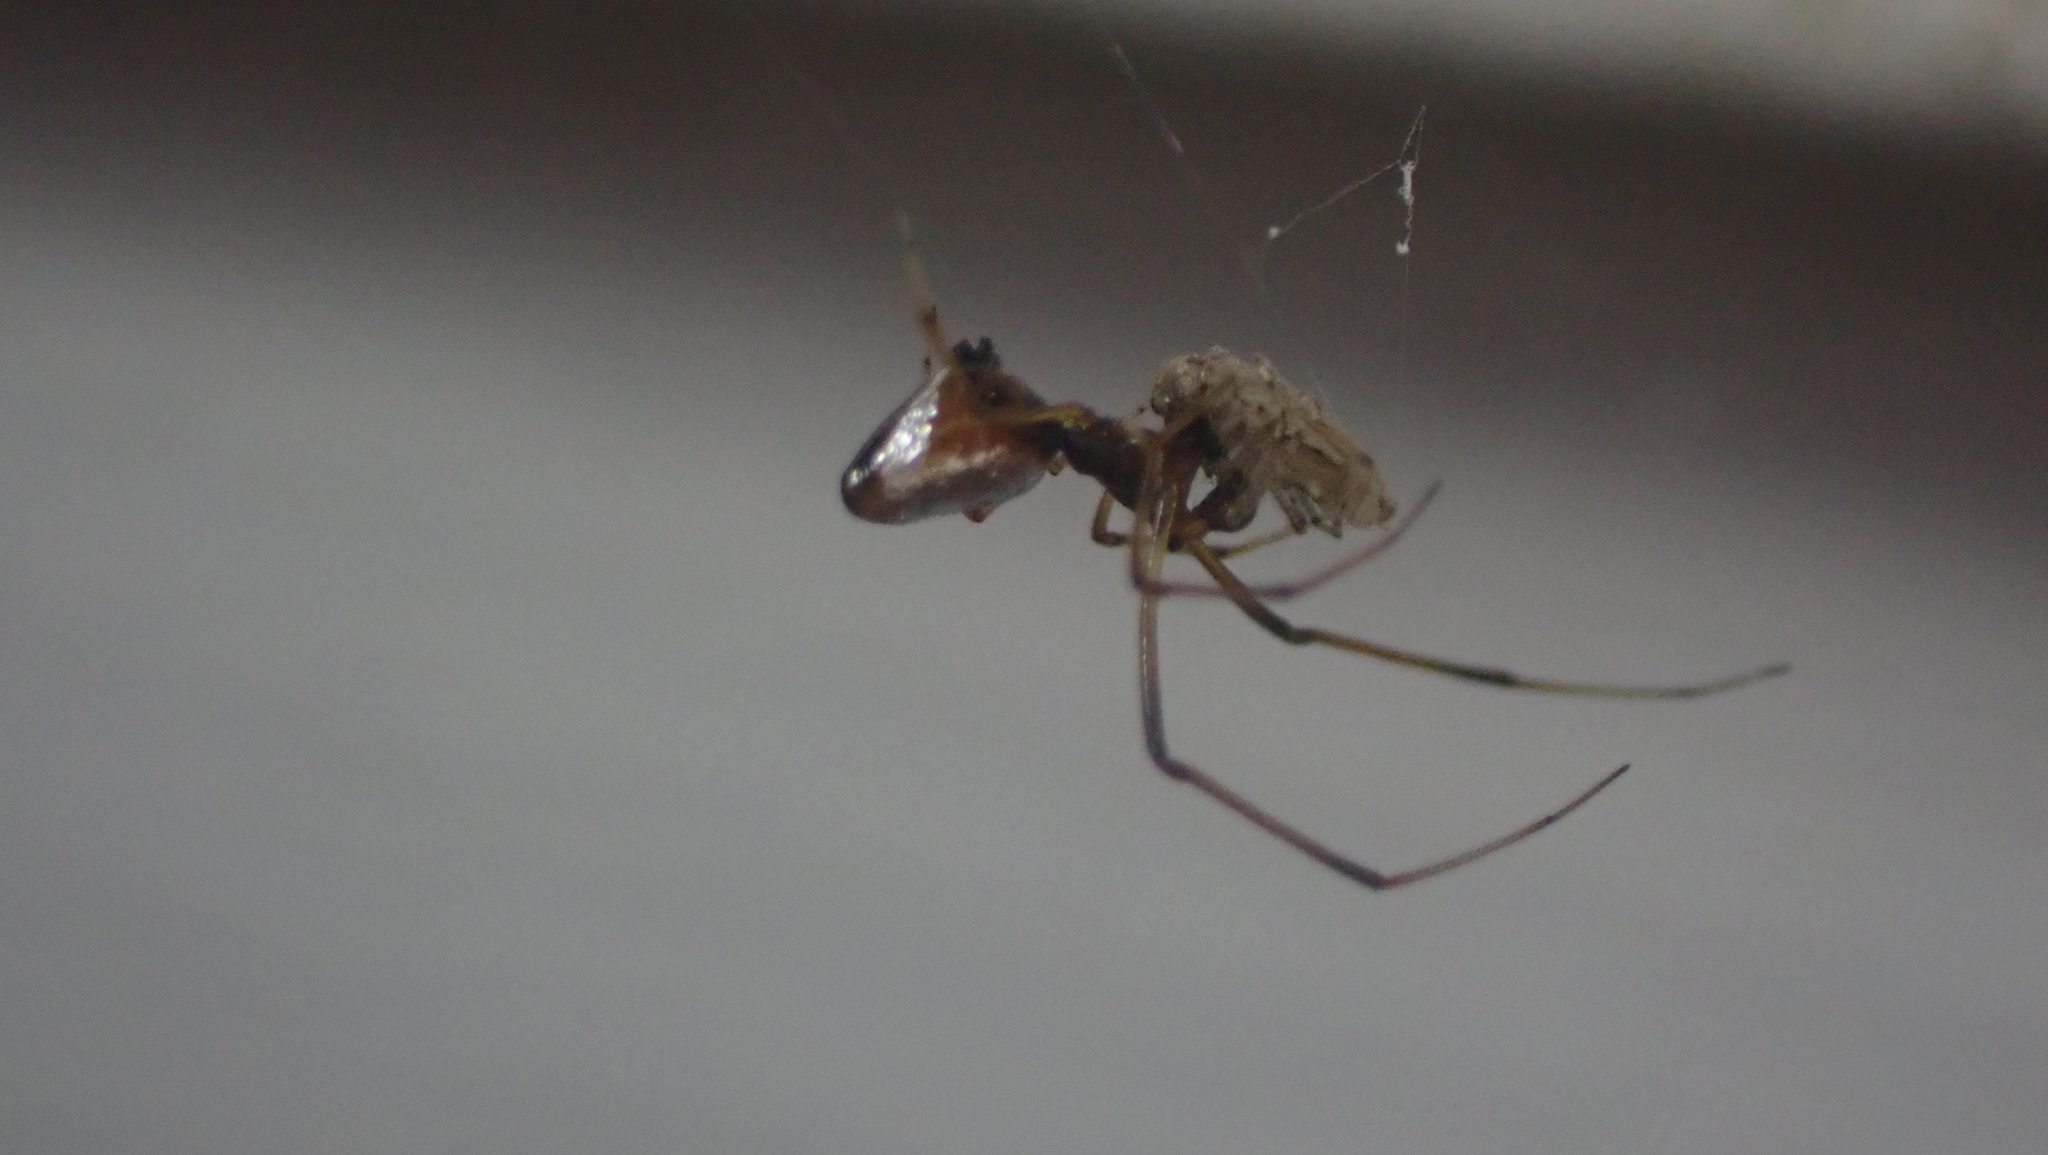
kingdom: Animalia
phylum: Arthropoda
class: Arachnida
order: Araneae
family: Theridiidae
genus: Argyrodes
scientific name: Argyrodes elevatus
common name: Cobweb spiders
